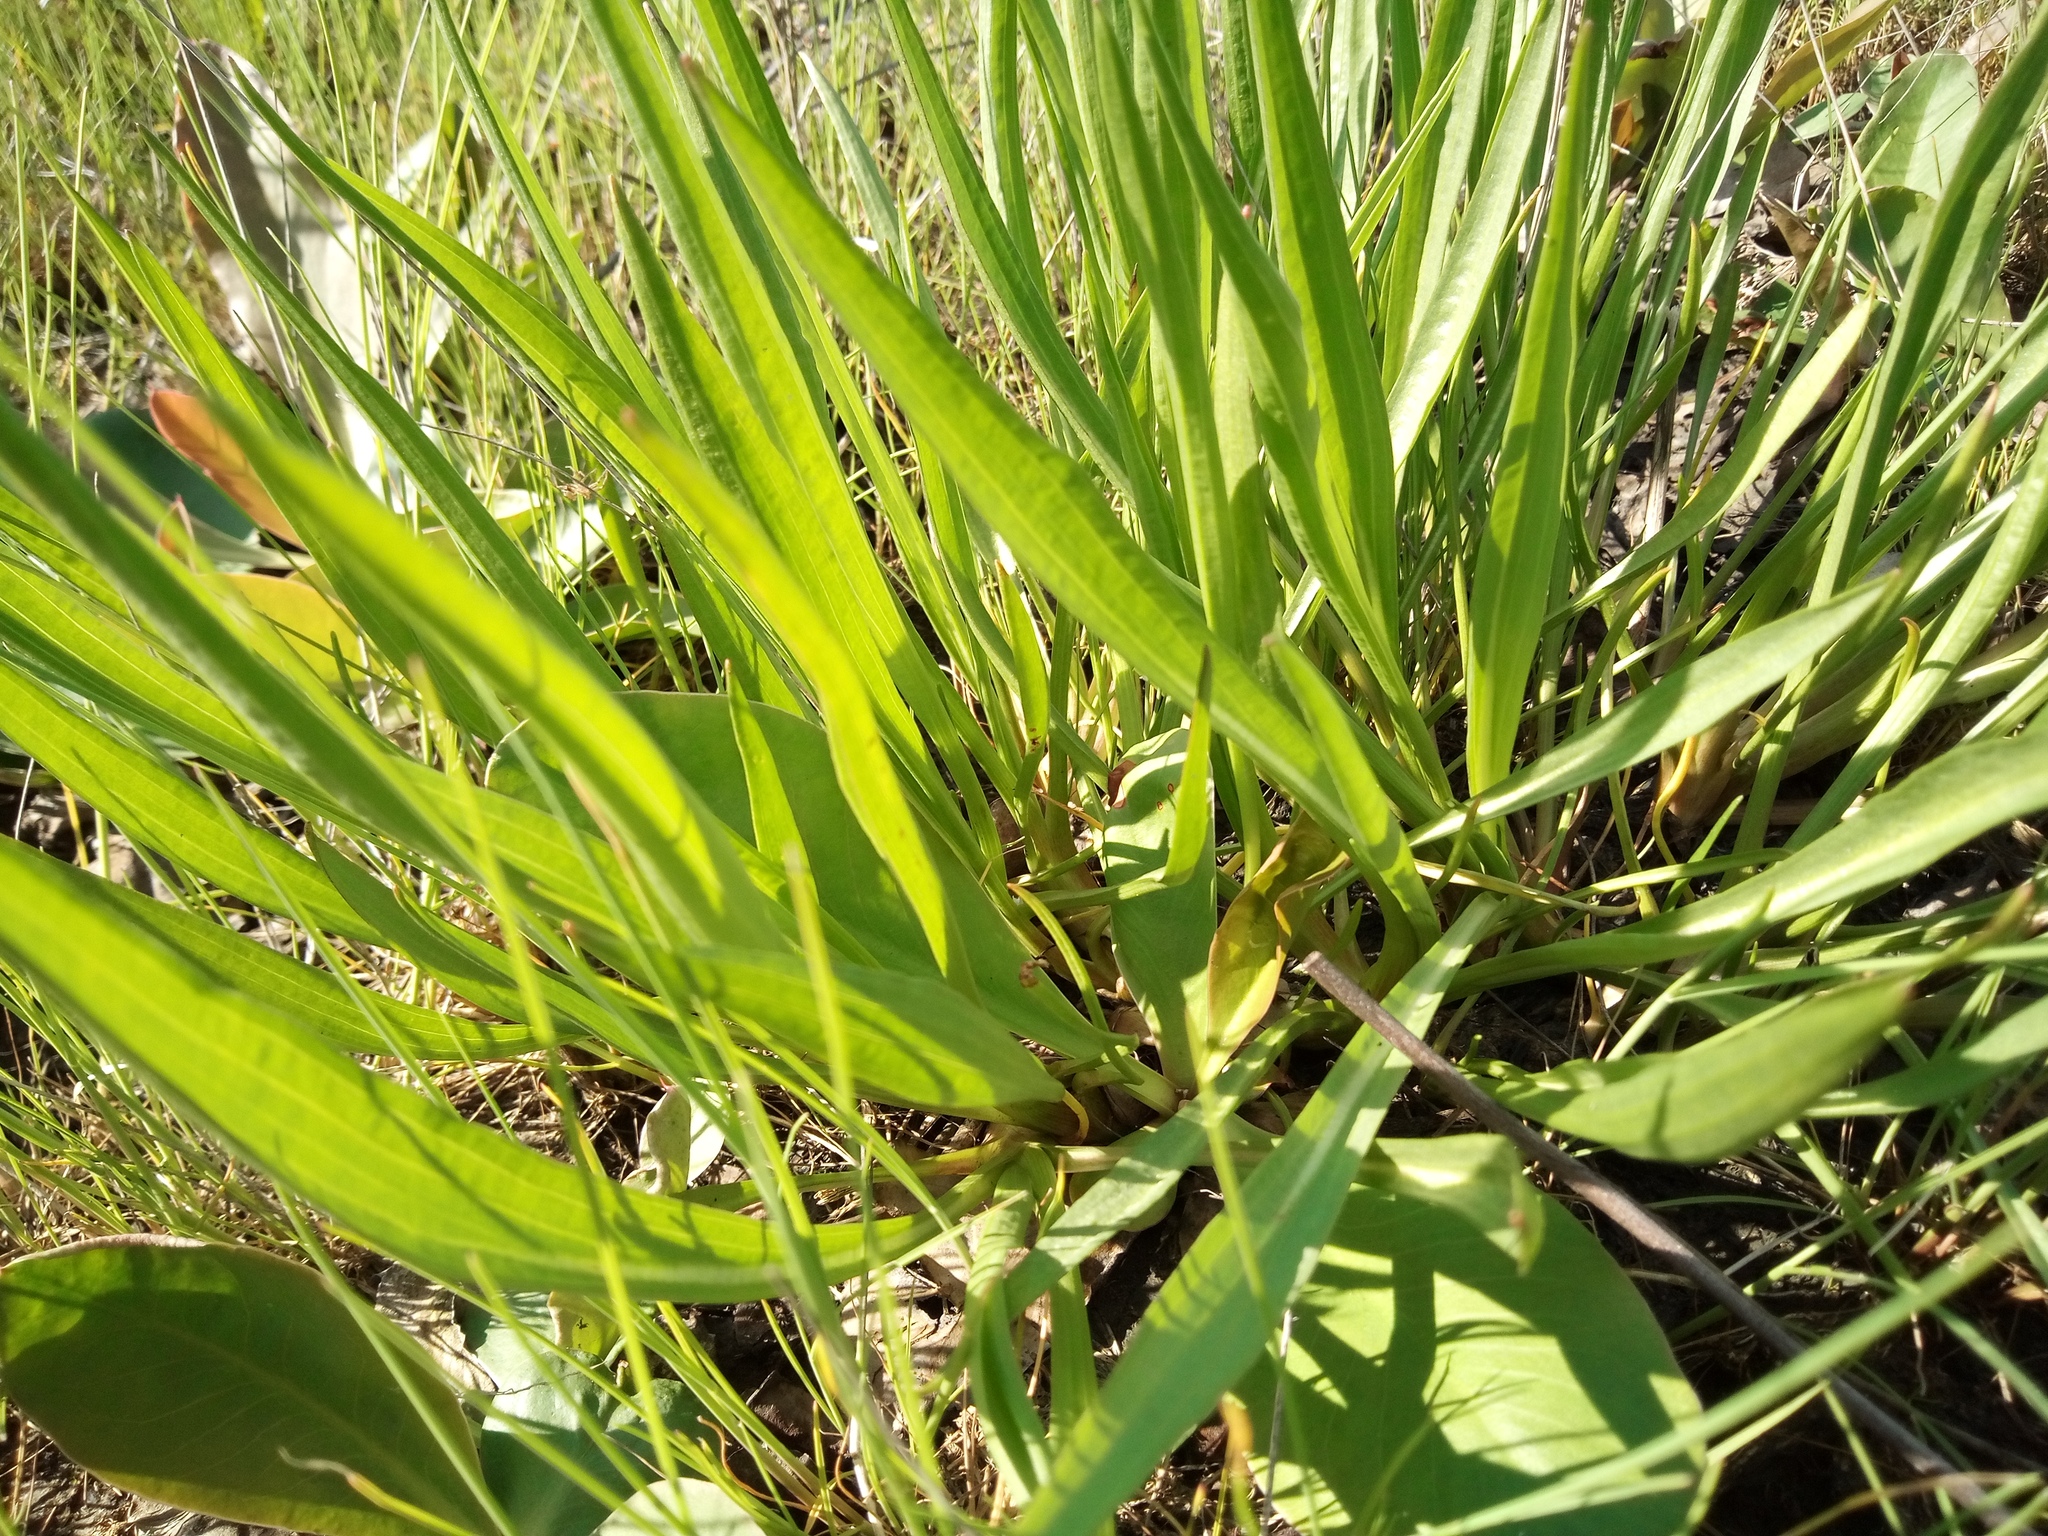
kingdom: Plantae
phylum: Tracheophyta
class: Magnoliopsida
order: Asterales
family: Asteraceae
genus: Scorzonera
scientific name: Scorzonera parviflora
